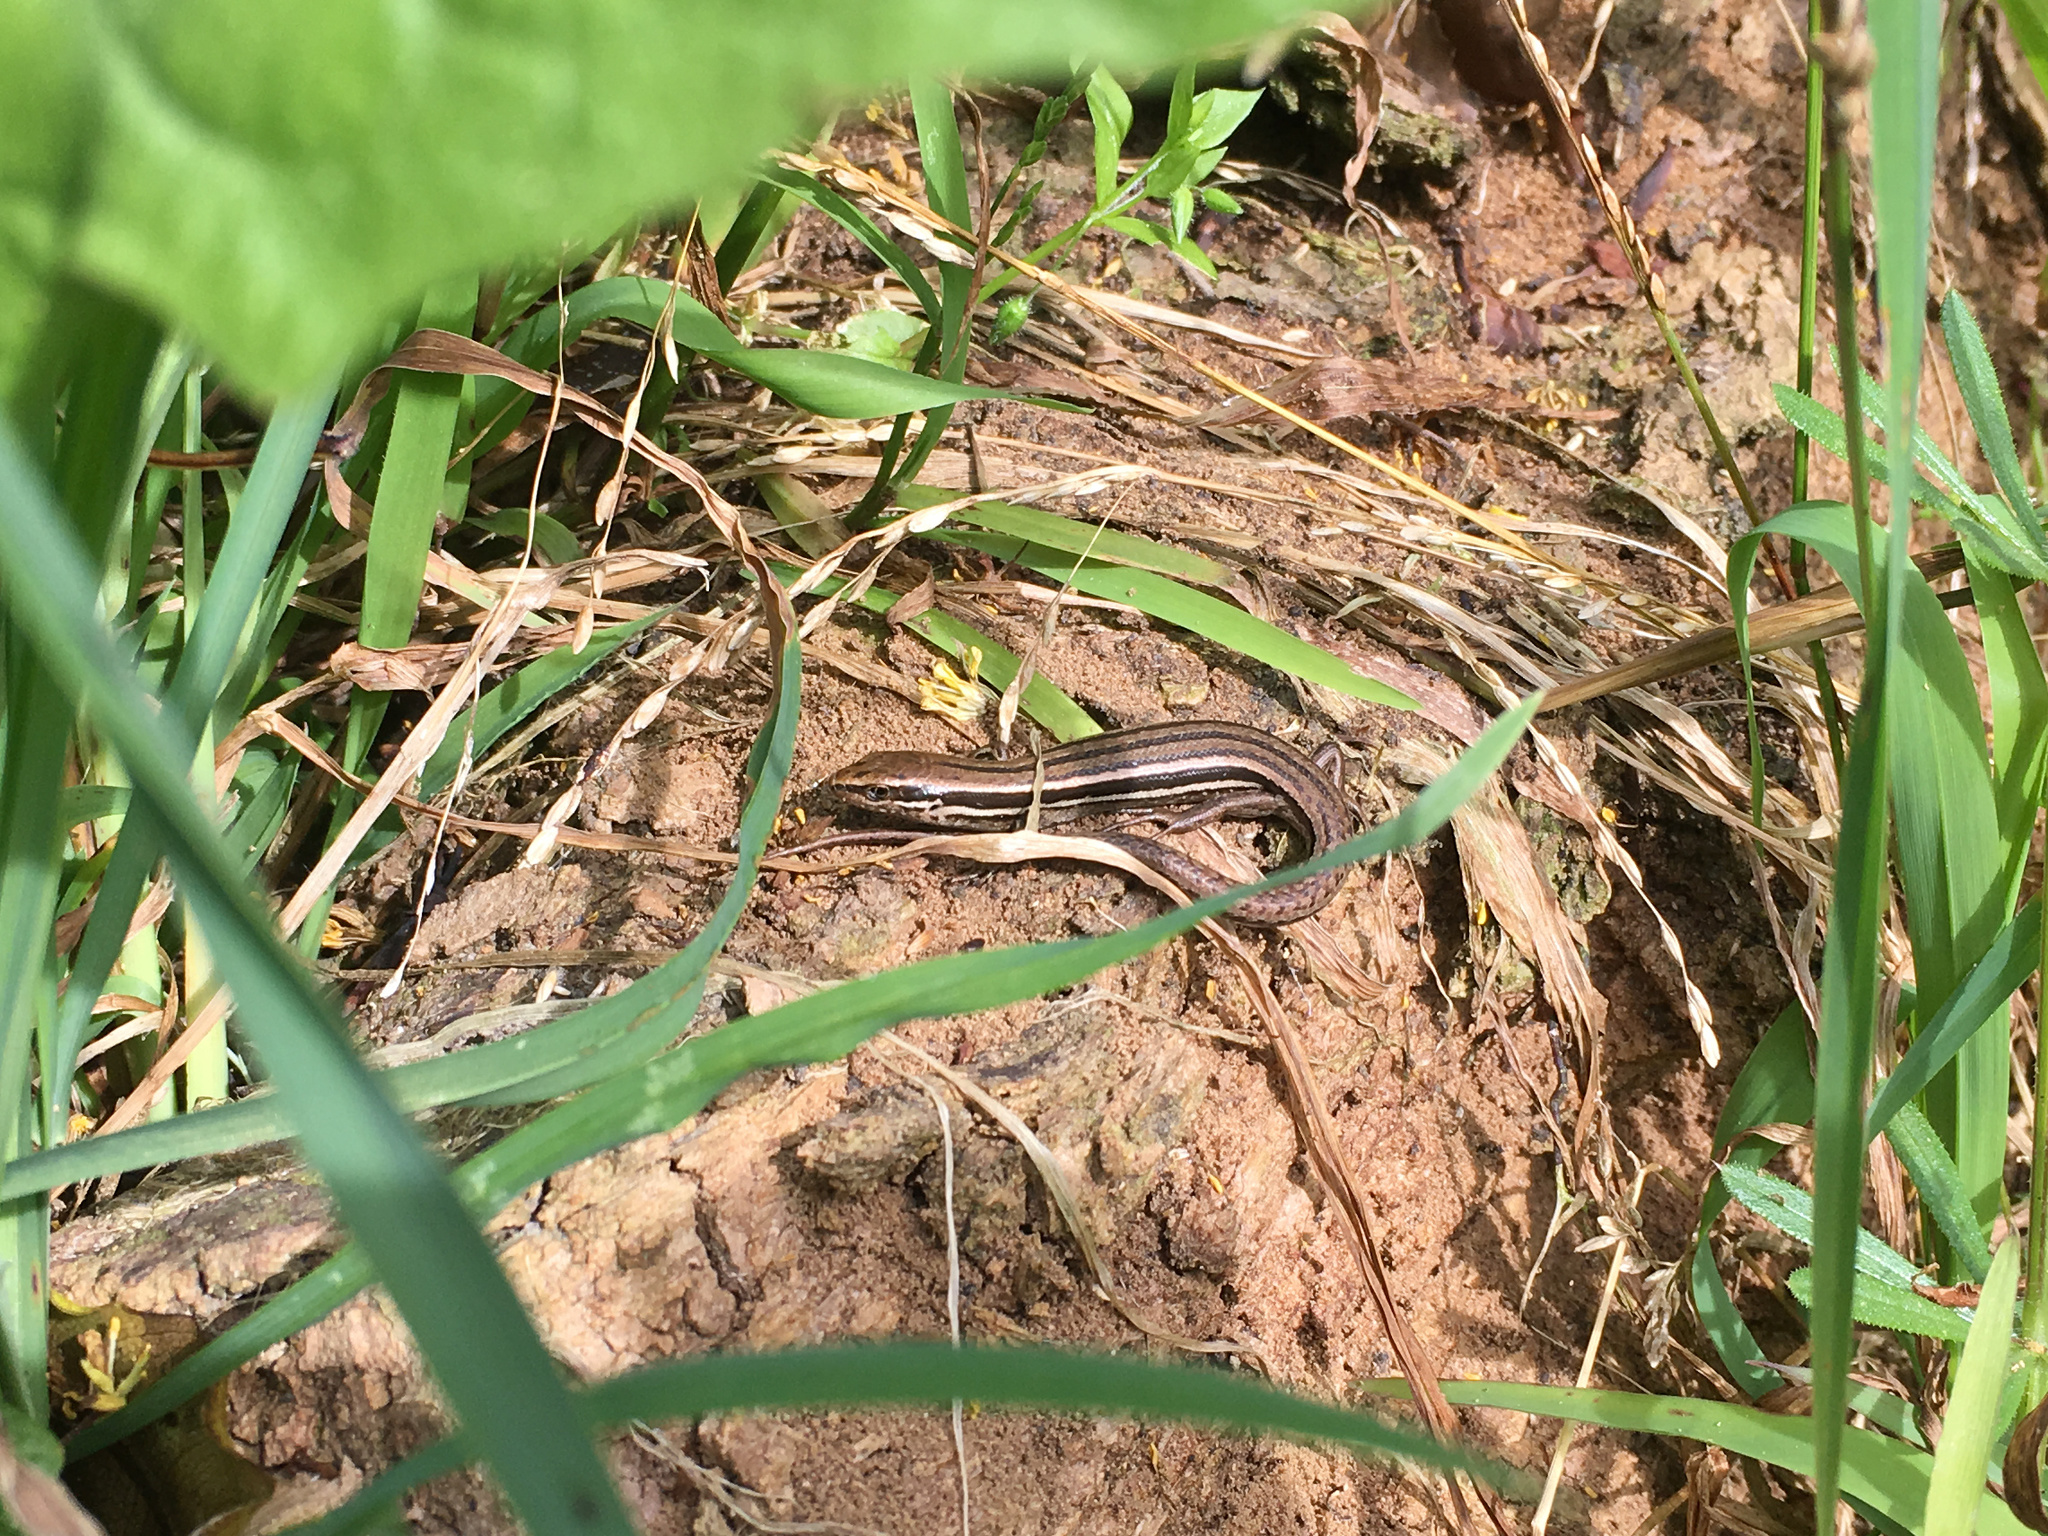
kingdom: Animalia
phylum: Chordata
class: Squamata
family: Scincidae
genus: Oligosoma
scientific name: Oligosoma maccanni
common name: Mccann’s skink
